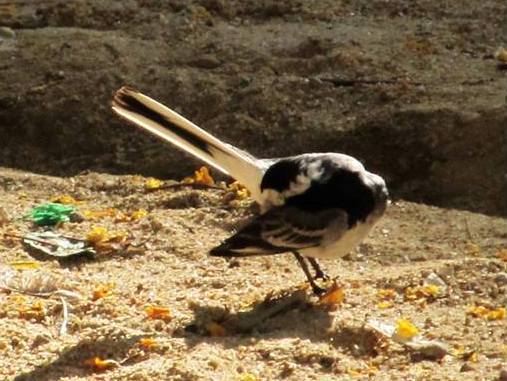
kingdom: Animalia
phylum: Chordata
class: Aves
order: Passeriformes
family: Motacillidae
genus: Motacilla
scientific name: Motacilla alba
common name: White wagtail
